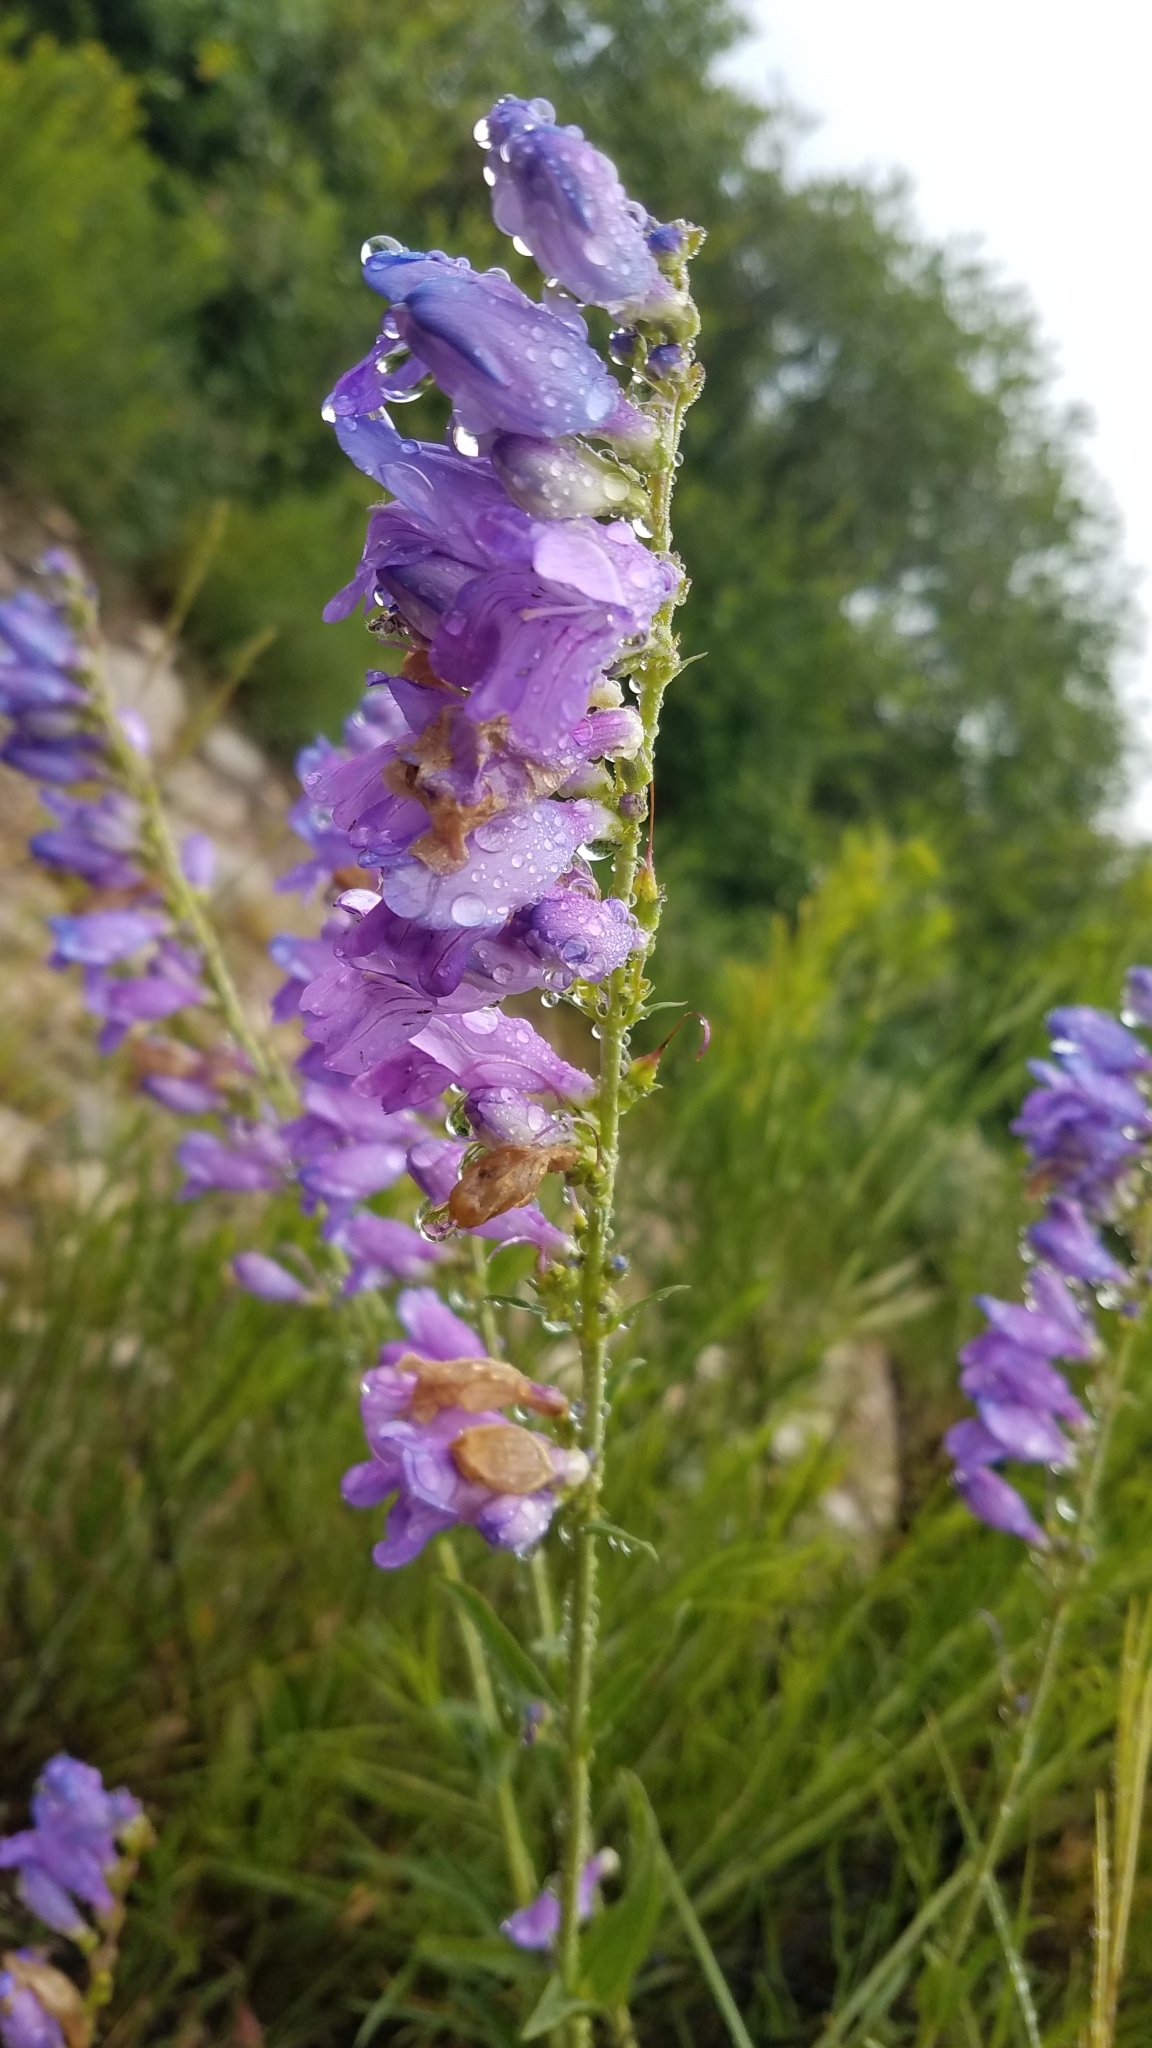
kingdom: Plantae
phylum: Tracheophyta
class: Magnoliopsida
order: Lamiales
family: Plantaginaceae
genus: Penstemon
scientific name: Penstemon strictus
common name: Rocky mountain penstemon
